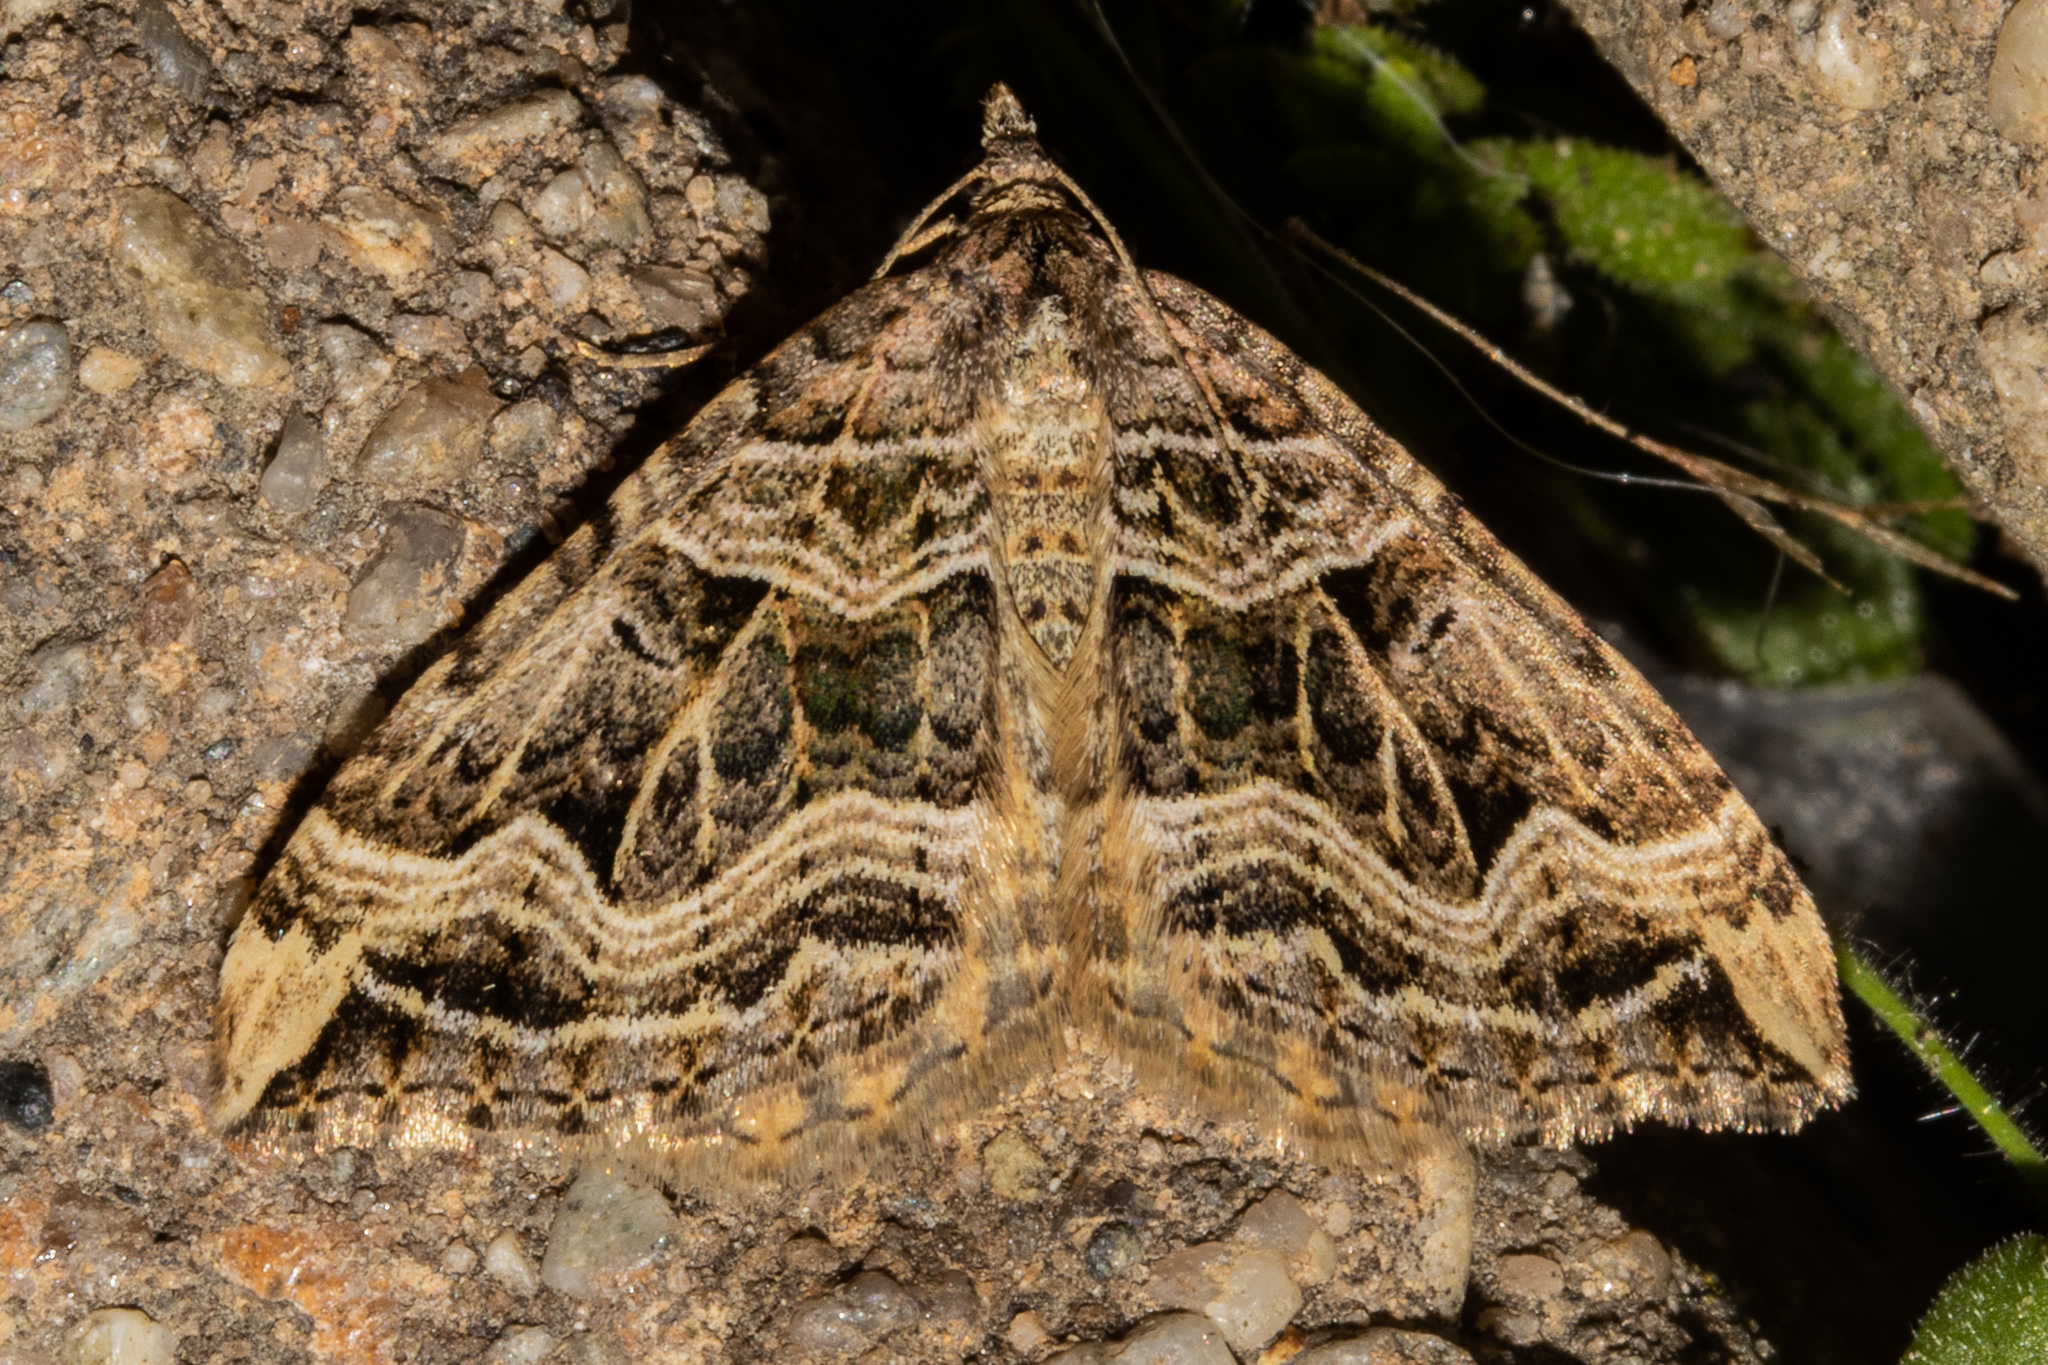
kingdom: Animalia
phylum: Arthropoda
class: Insecta
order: Lepidoptera
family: Geometridae
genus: Xanthorhoe
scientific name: Xanthorhoe semifissata
